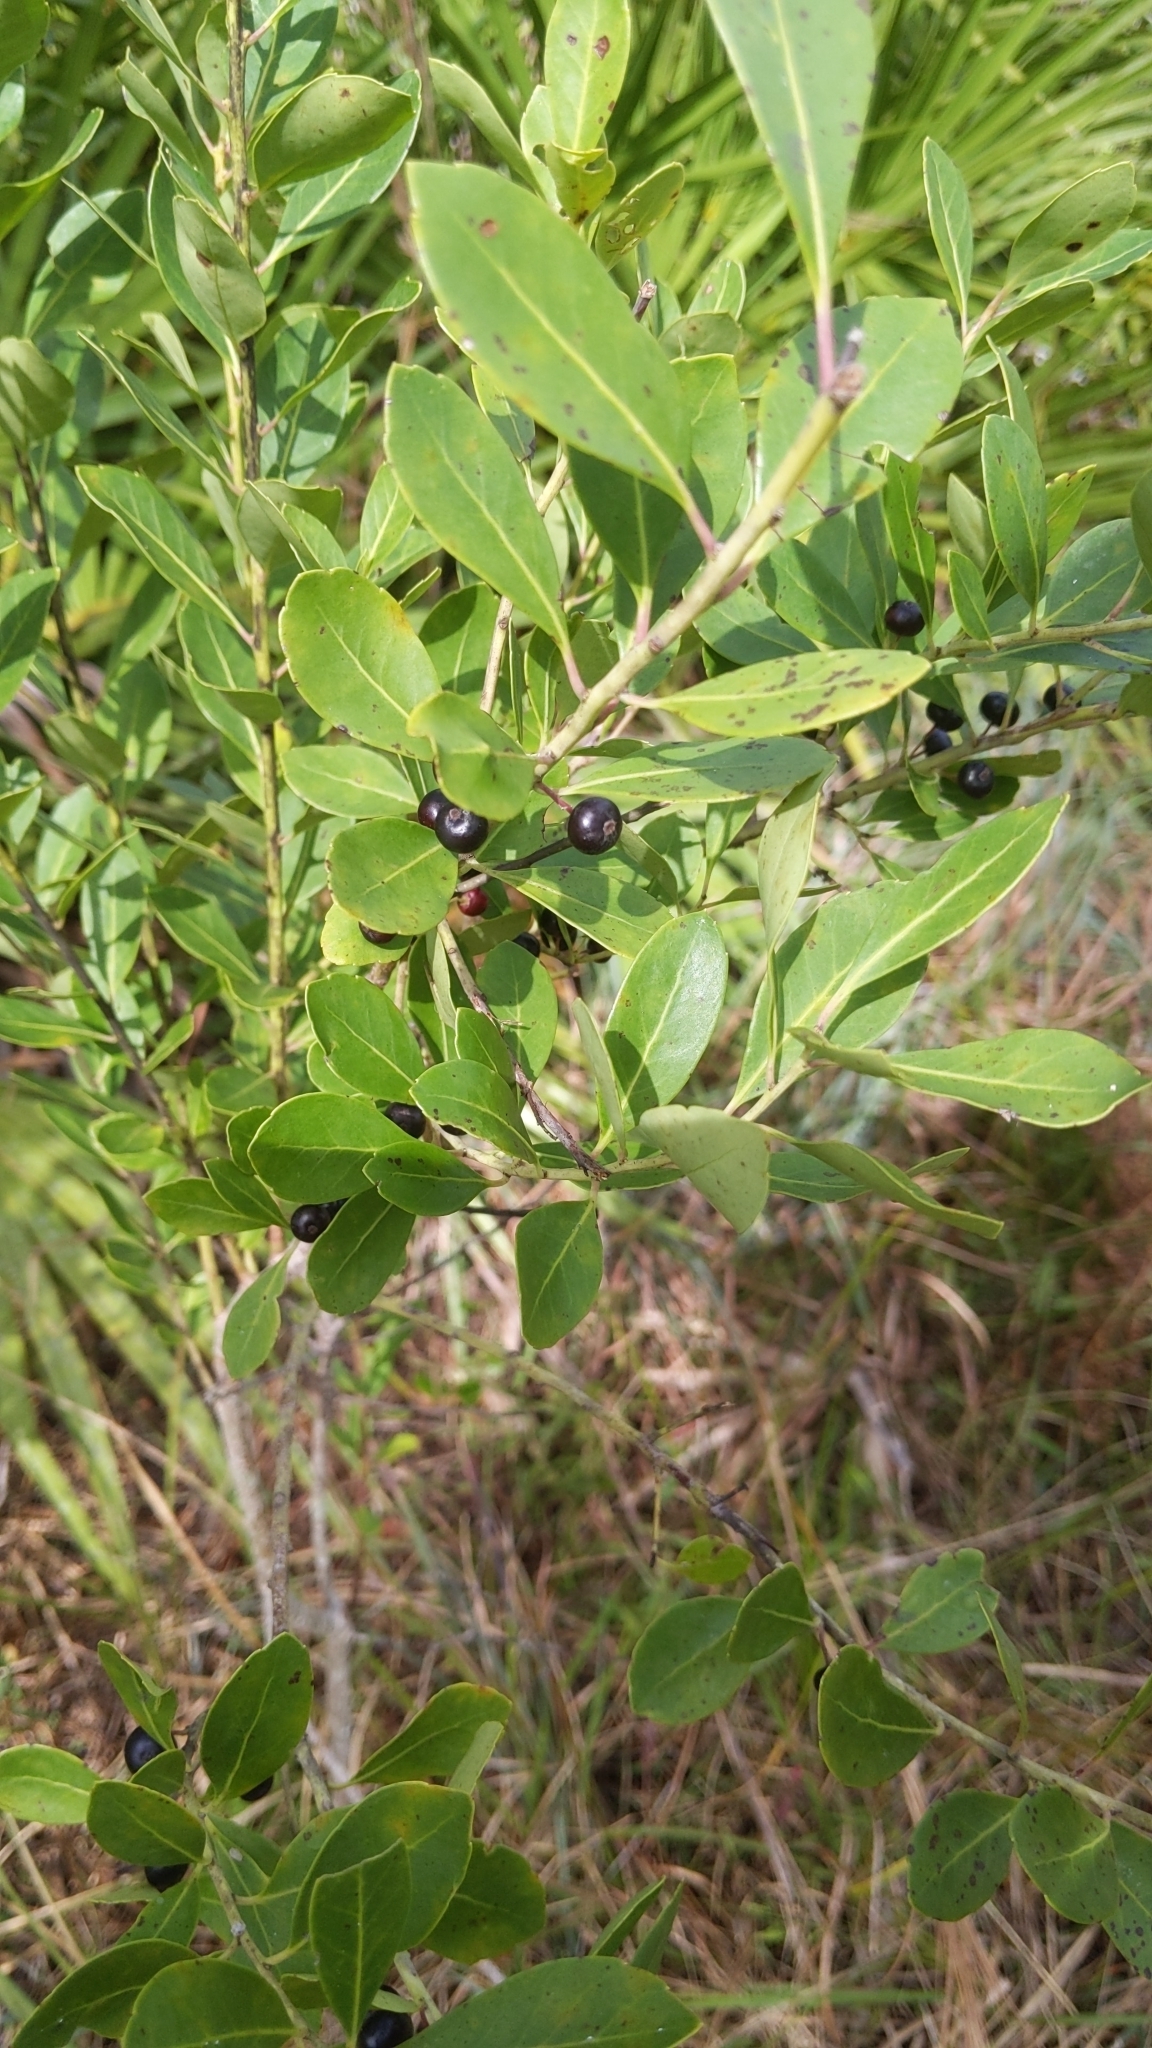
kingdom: Plantae
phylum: Tracheophyta
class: Magnoliopsida
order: Aquifoliales
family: Aquifoliaceae
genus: Ilex
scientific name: Ilex glabra
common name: Bitter gallberry
